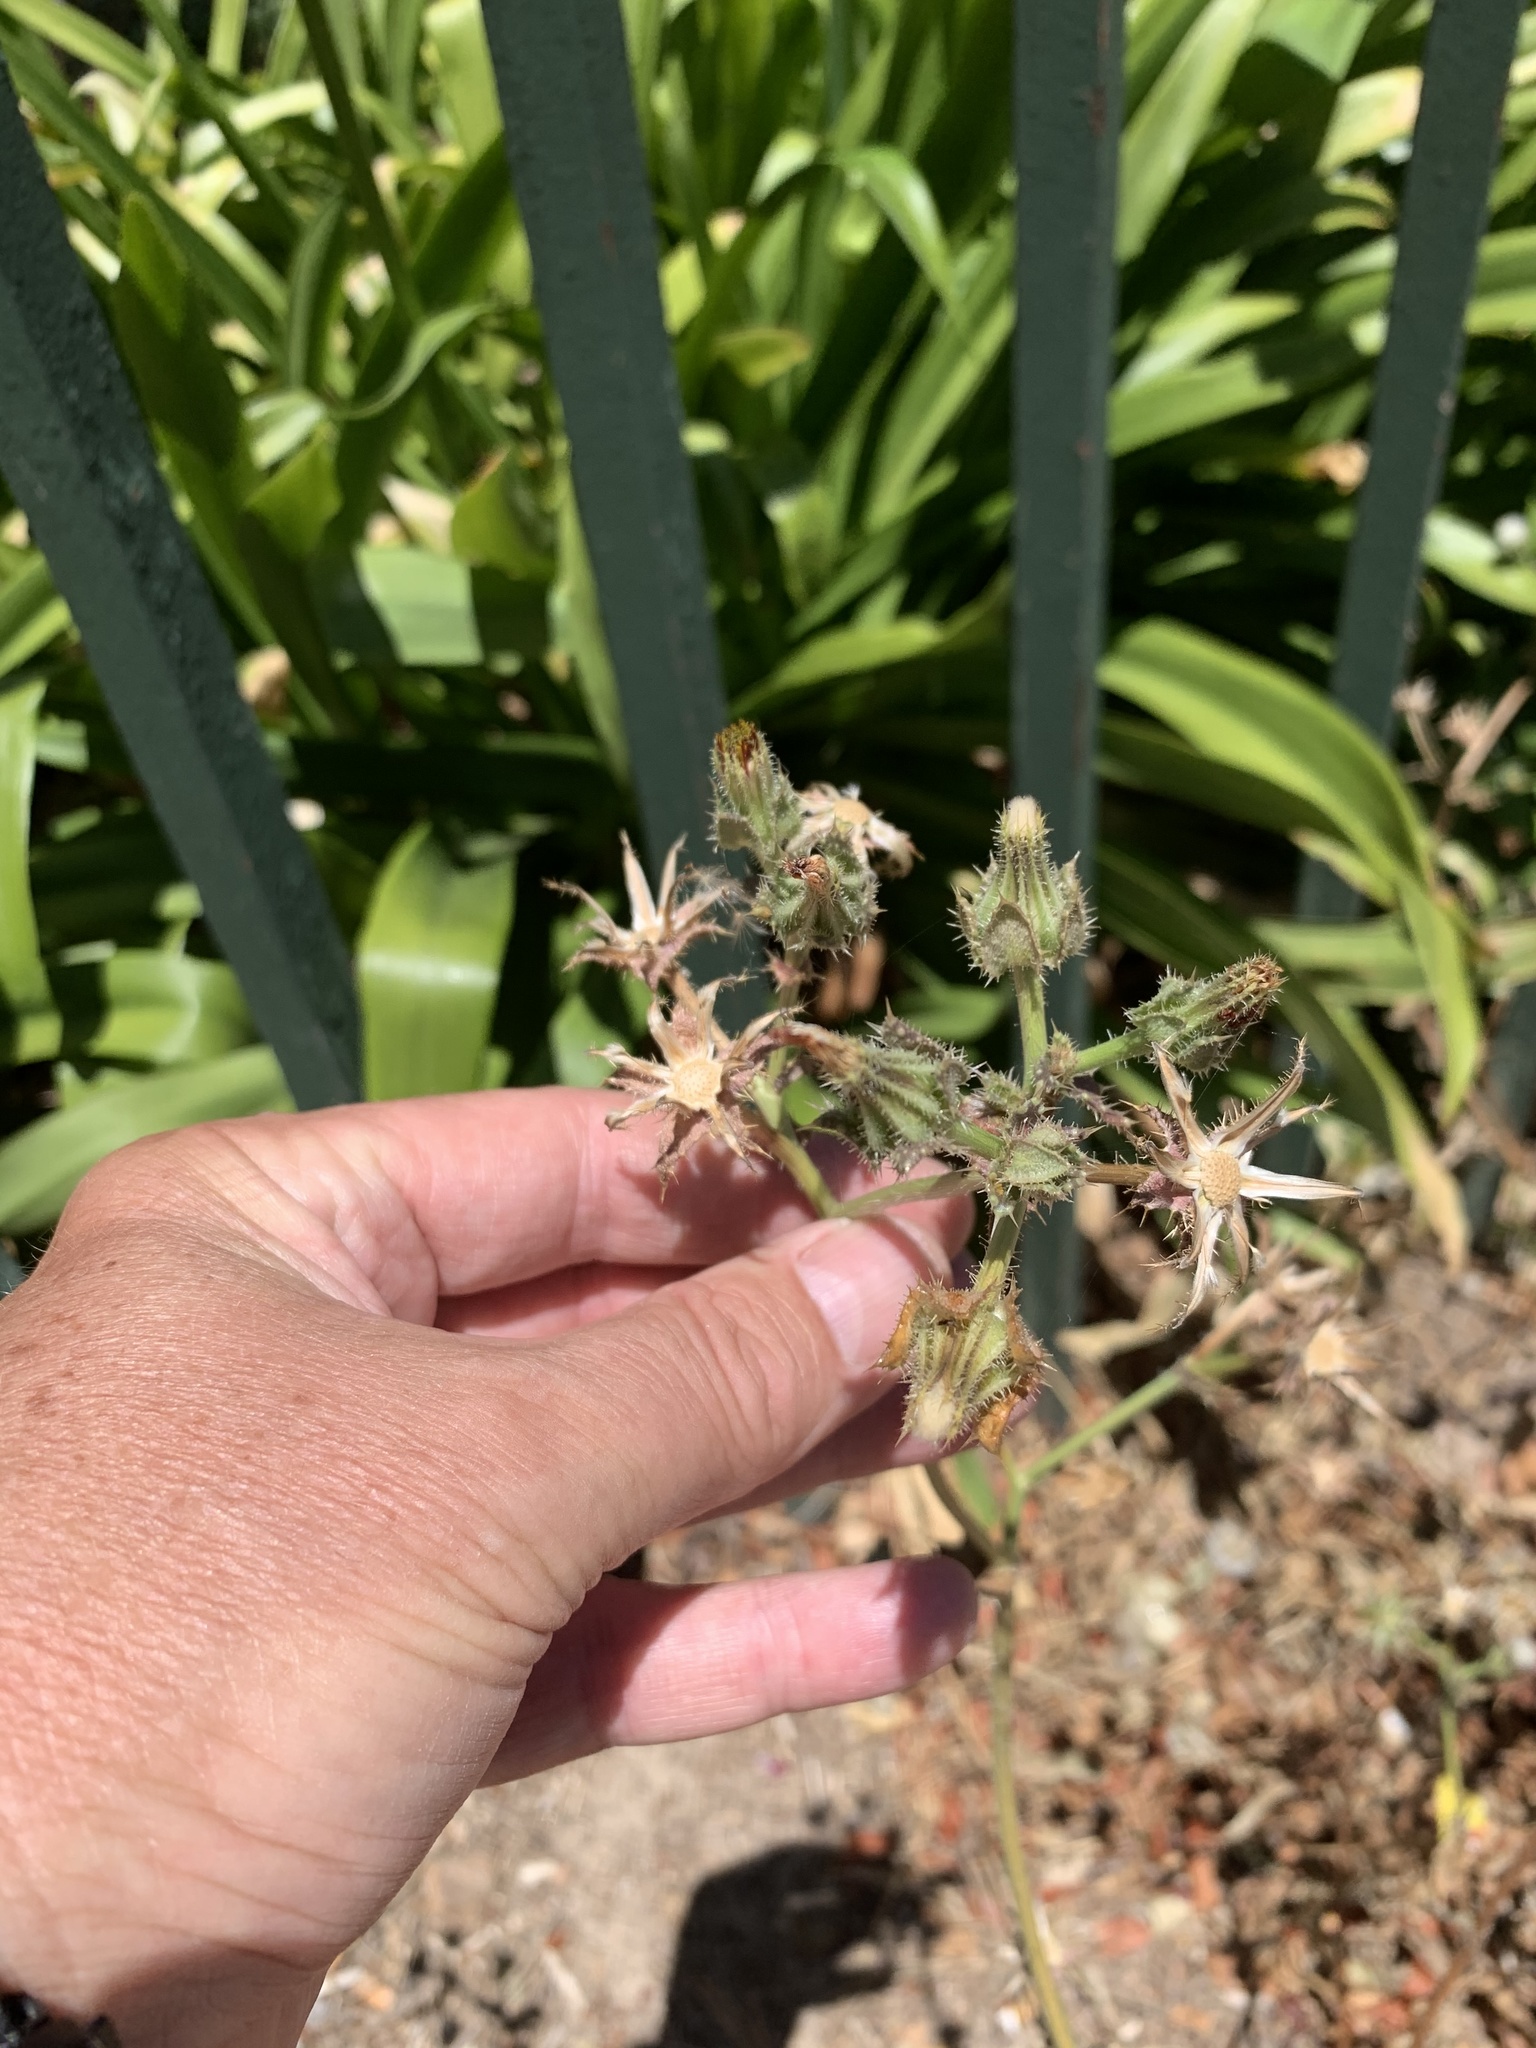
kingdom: Plantae
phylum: Tracheophyta
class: Magnoliopsida
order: Asterales
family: Asteraceae
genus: Helminthotheca
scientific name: Helminthotheca echioides
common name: Ox-tongue
